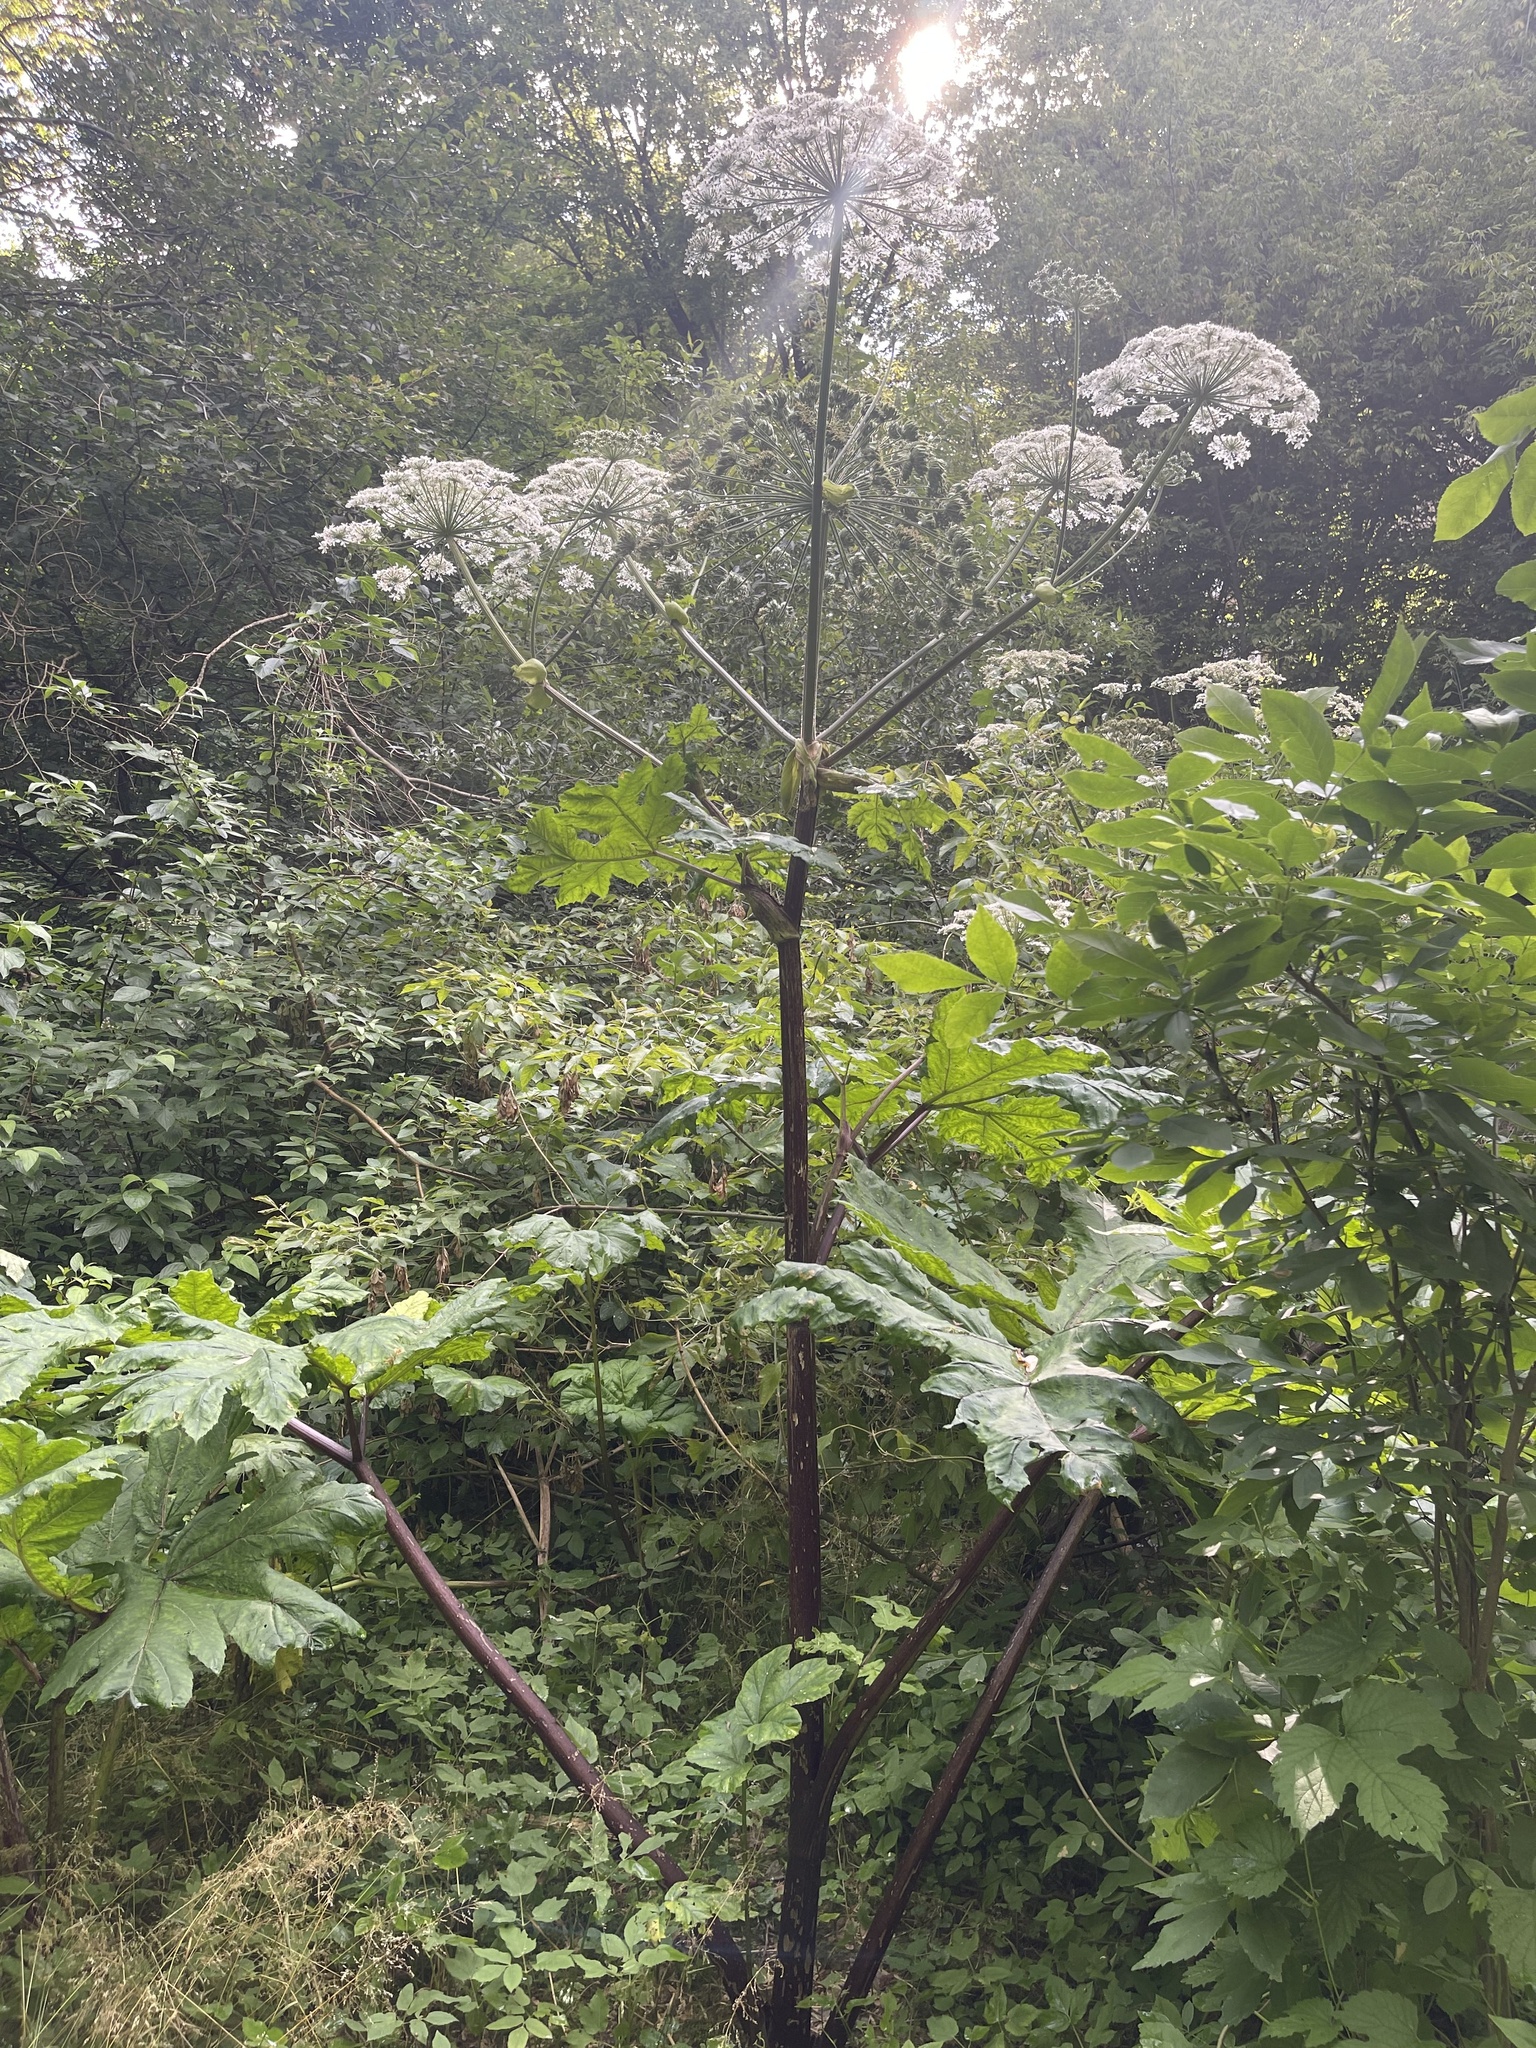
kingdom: Plantae
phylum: Tracheophyta
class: Magnoliopsida
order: Apiales
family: Apiaceae
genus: Heracleum
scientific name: Heracleum sosnowskyi
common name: Sosnowsky's hogweed
